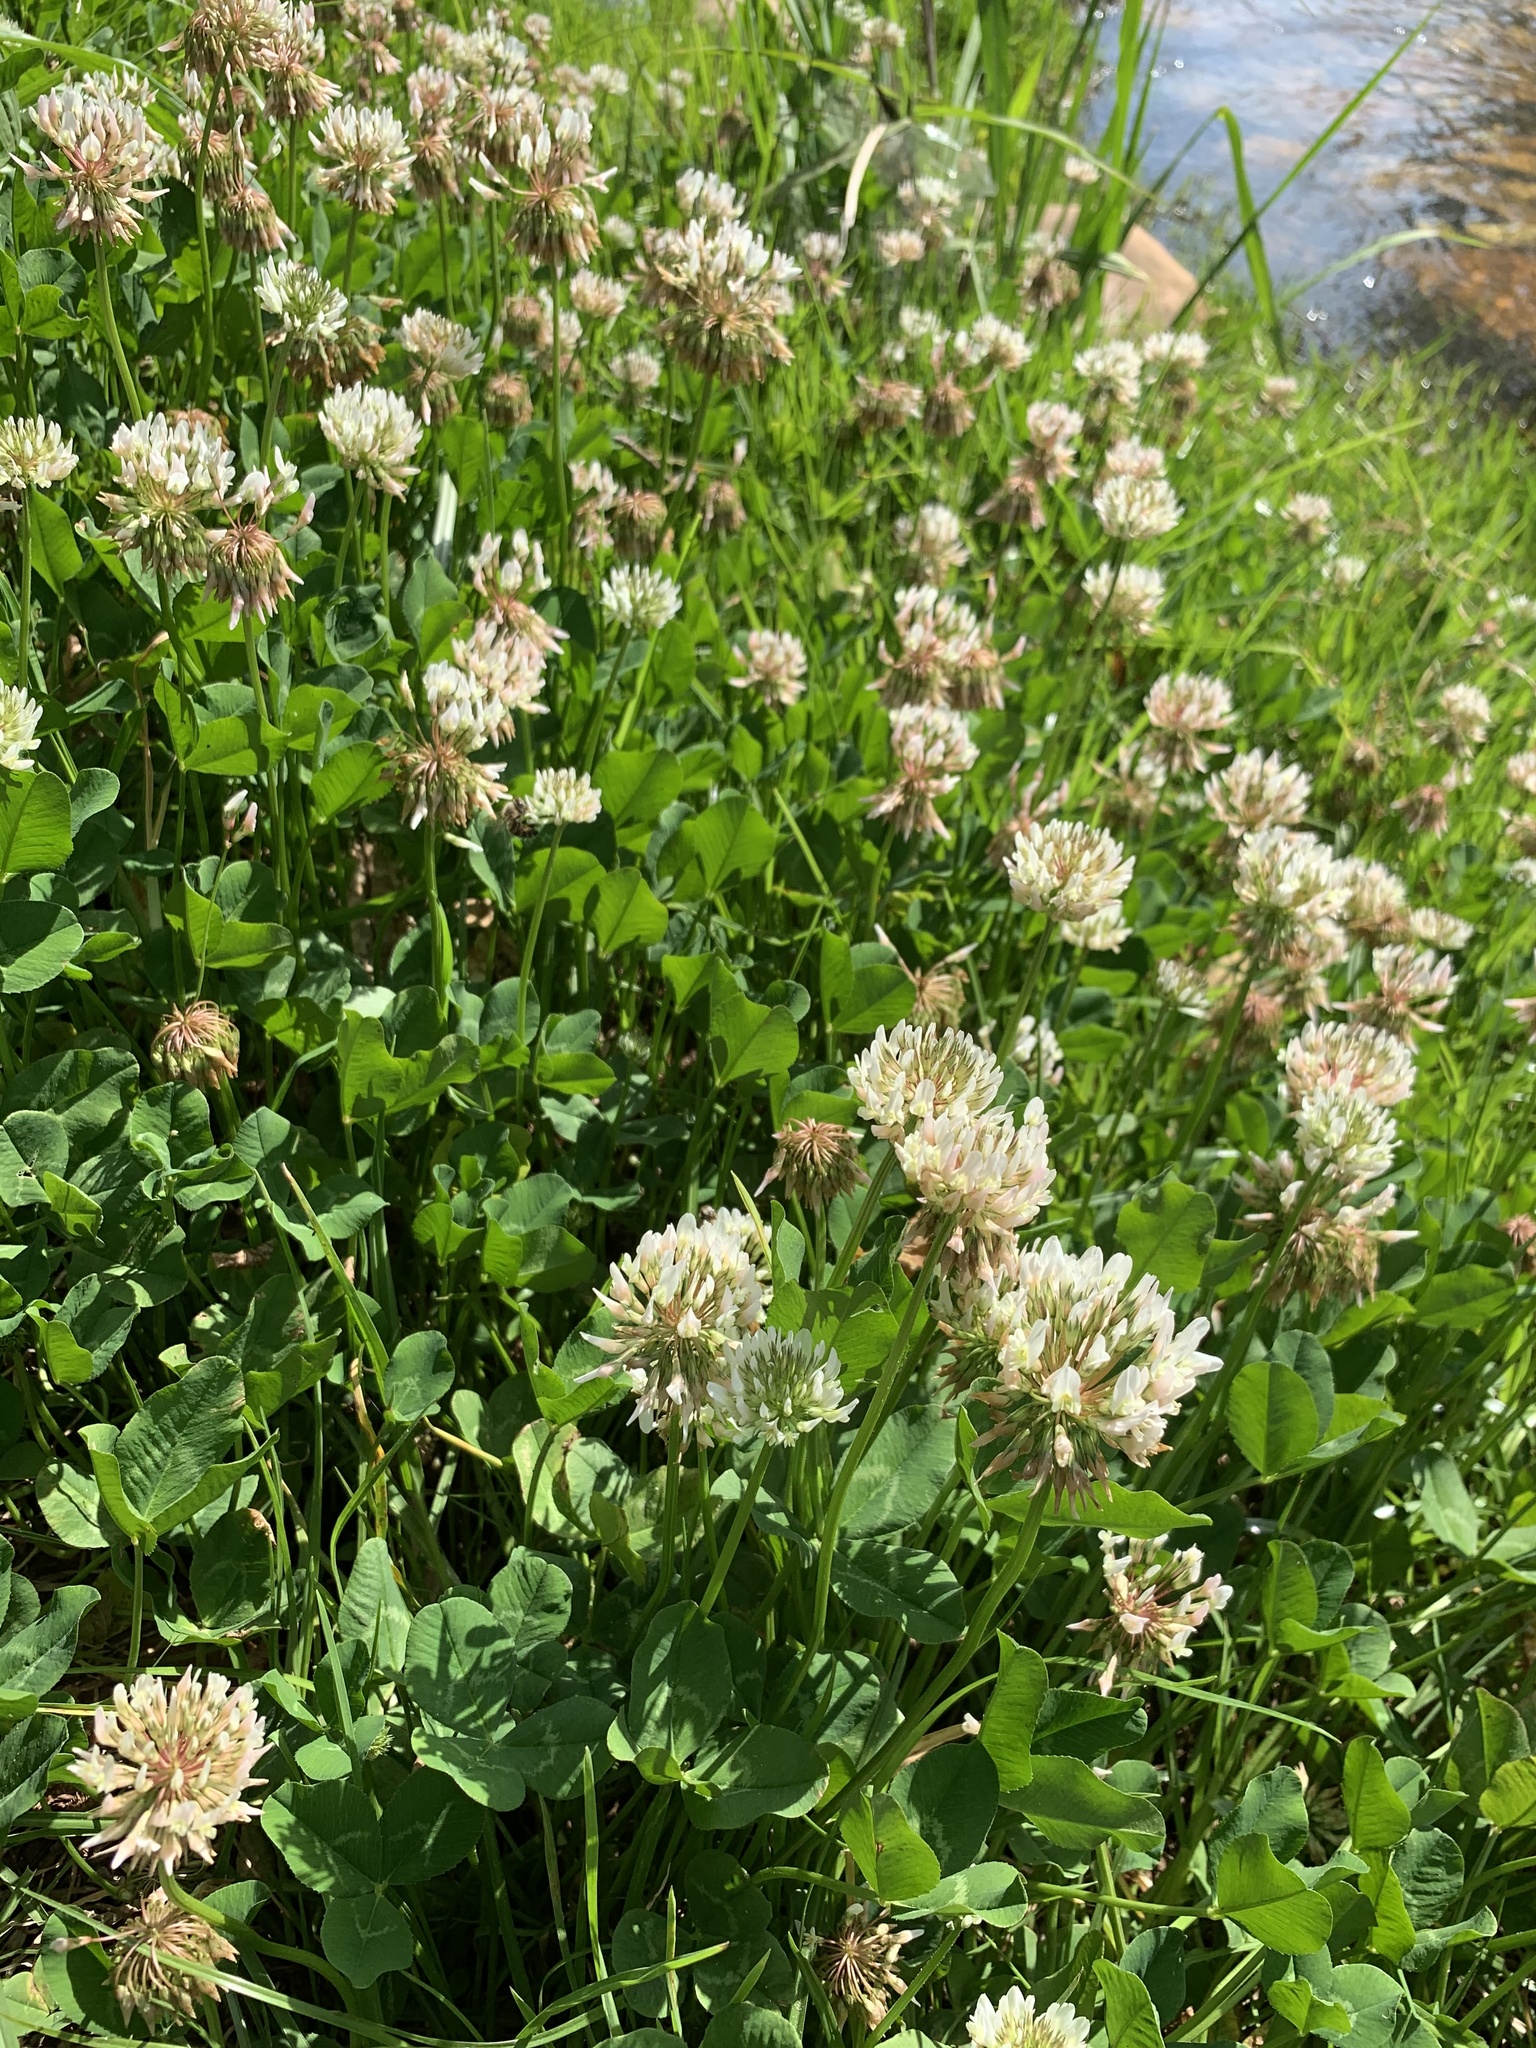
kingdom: Plantae
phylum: Tracheophyta
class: Magnoliopsida
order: Fabales
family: Fabaceae
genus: Trifolium
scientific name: Trifolium repens
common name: White clover
